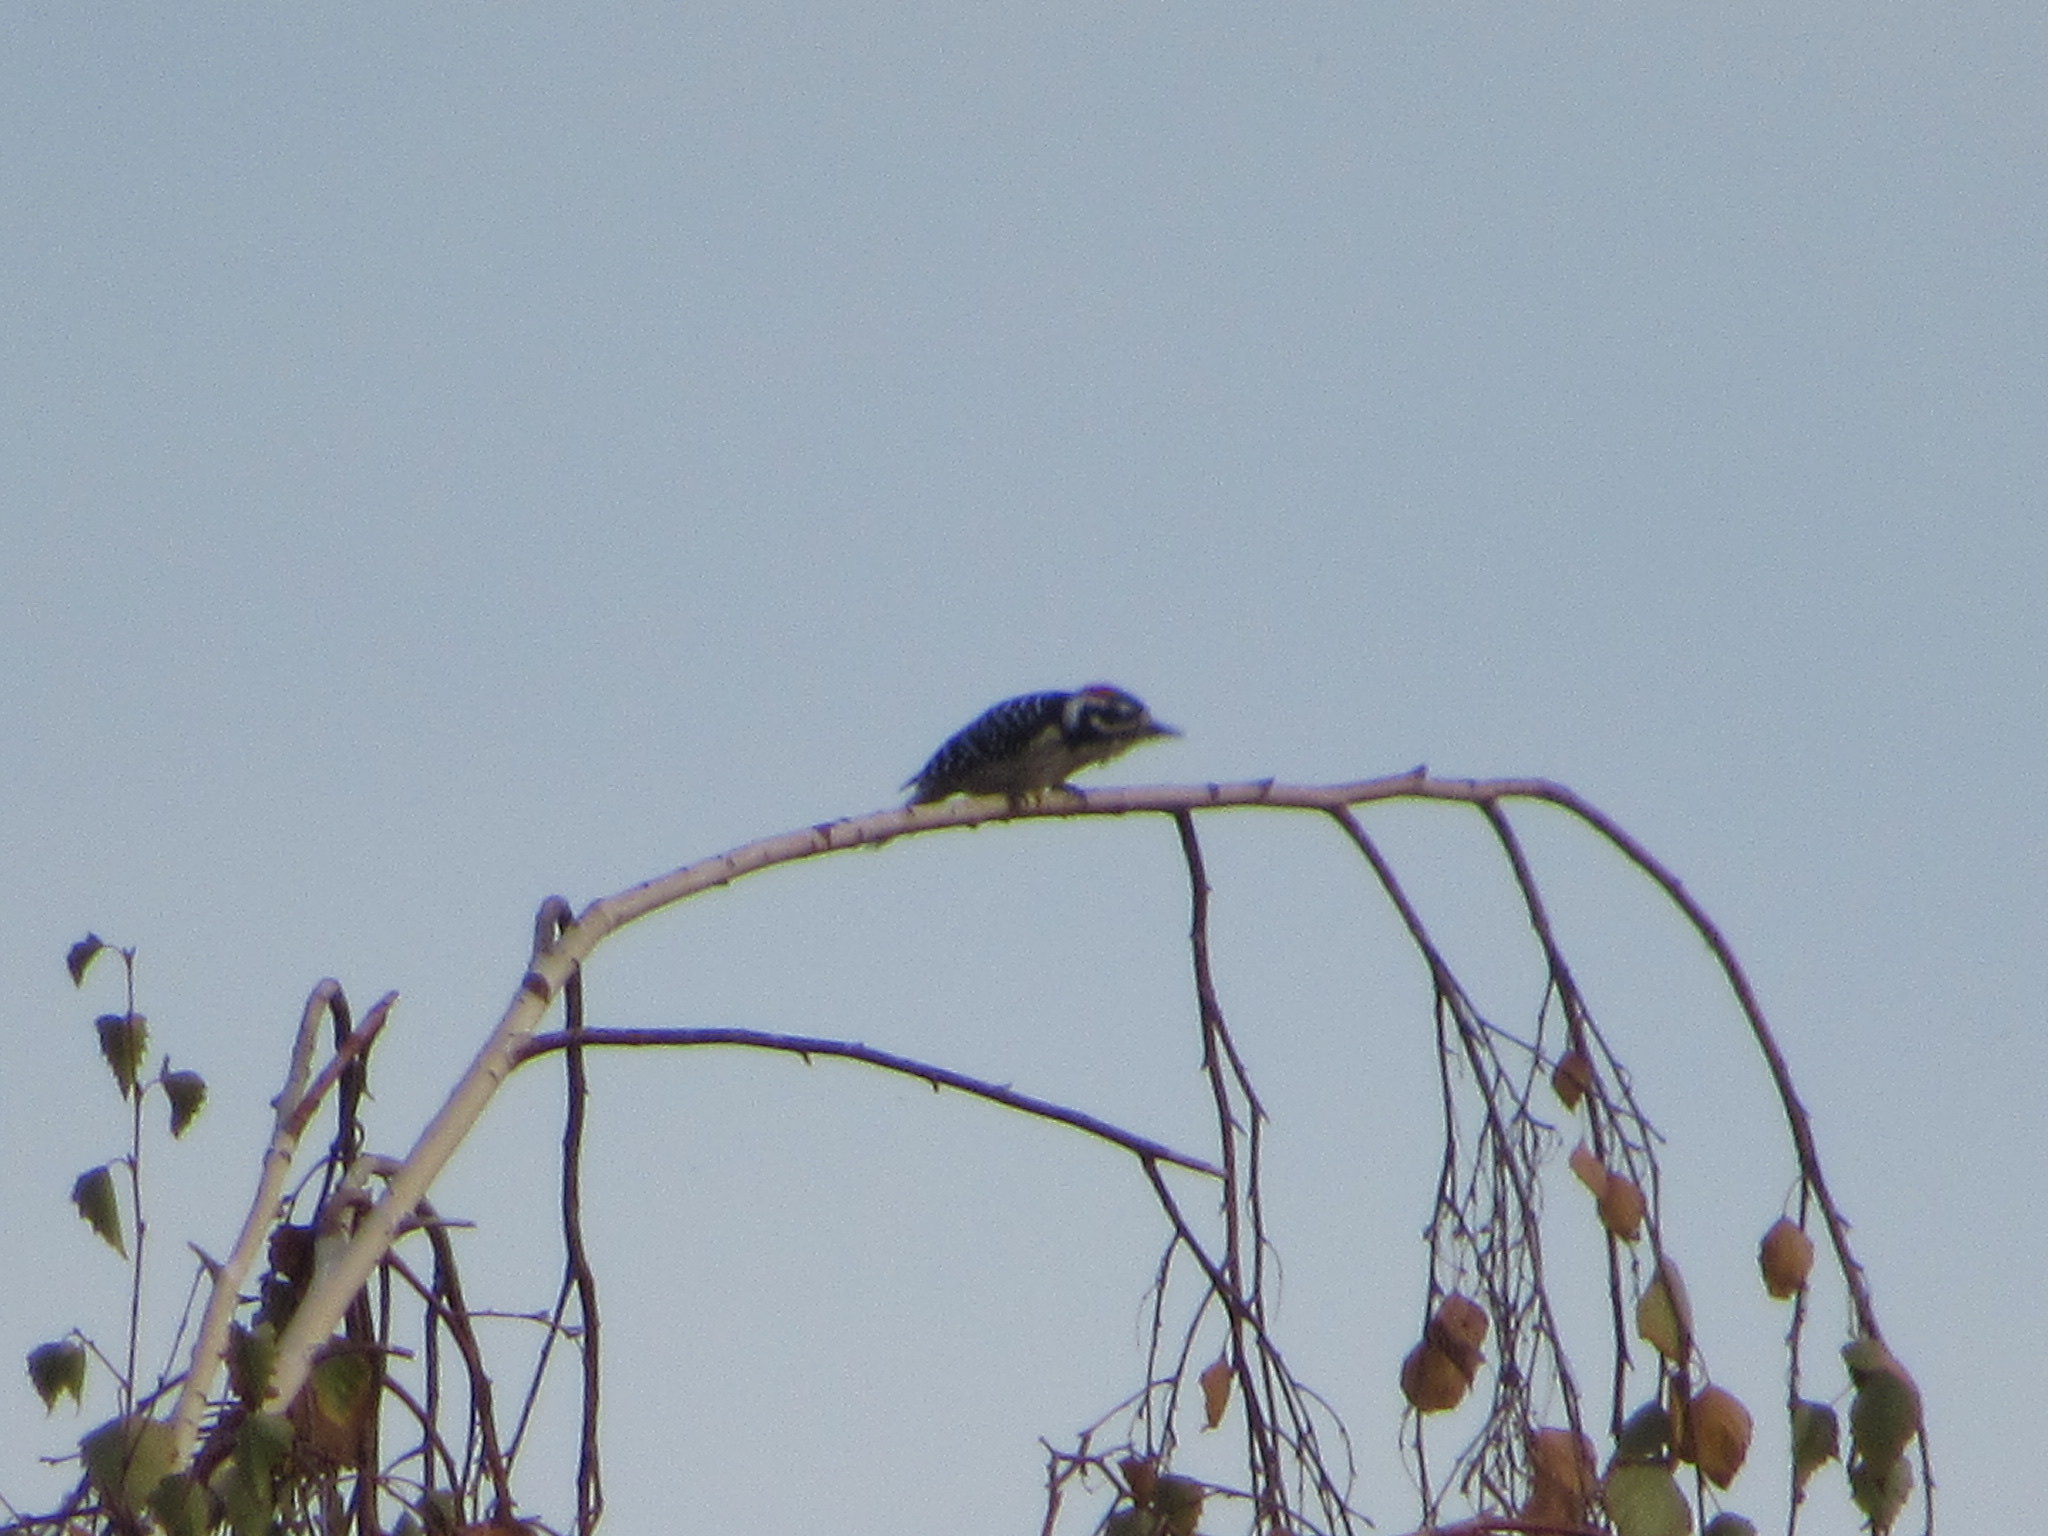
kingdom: Animalia
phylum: Chordata
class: Aves
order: Piciformes
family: Picidae
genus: Dryobates
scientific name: Dryobates nuttallii
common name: Nuttall's woodpecker
